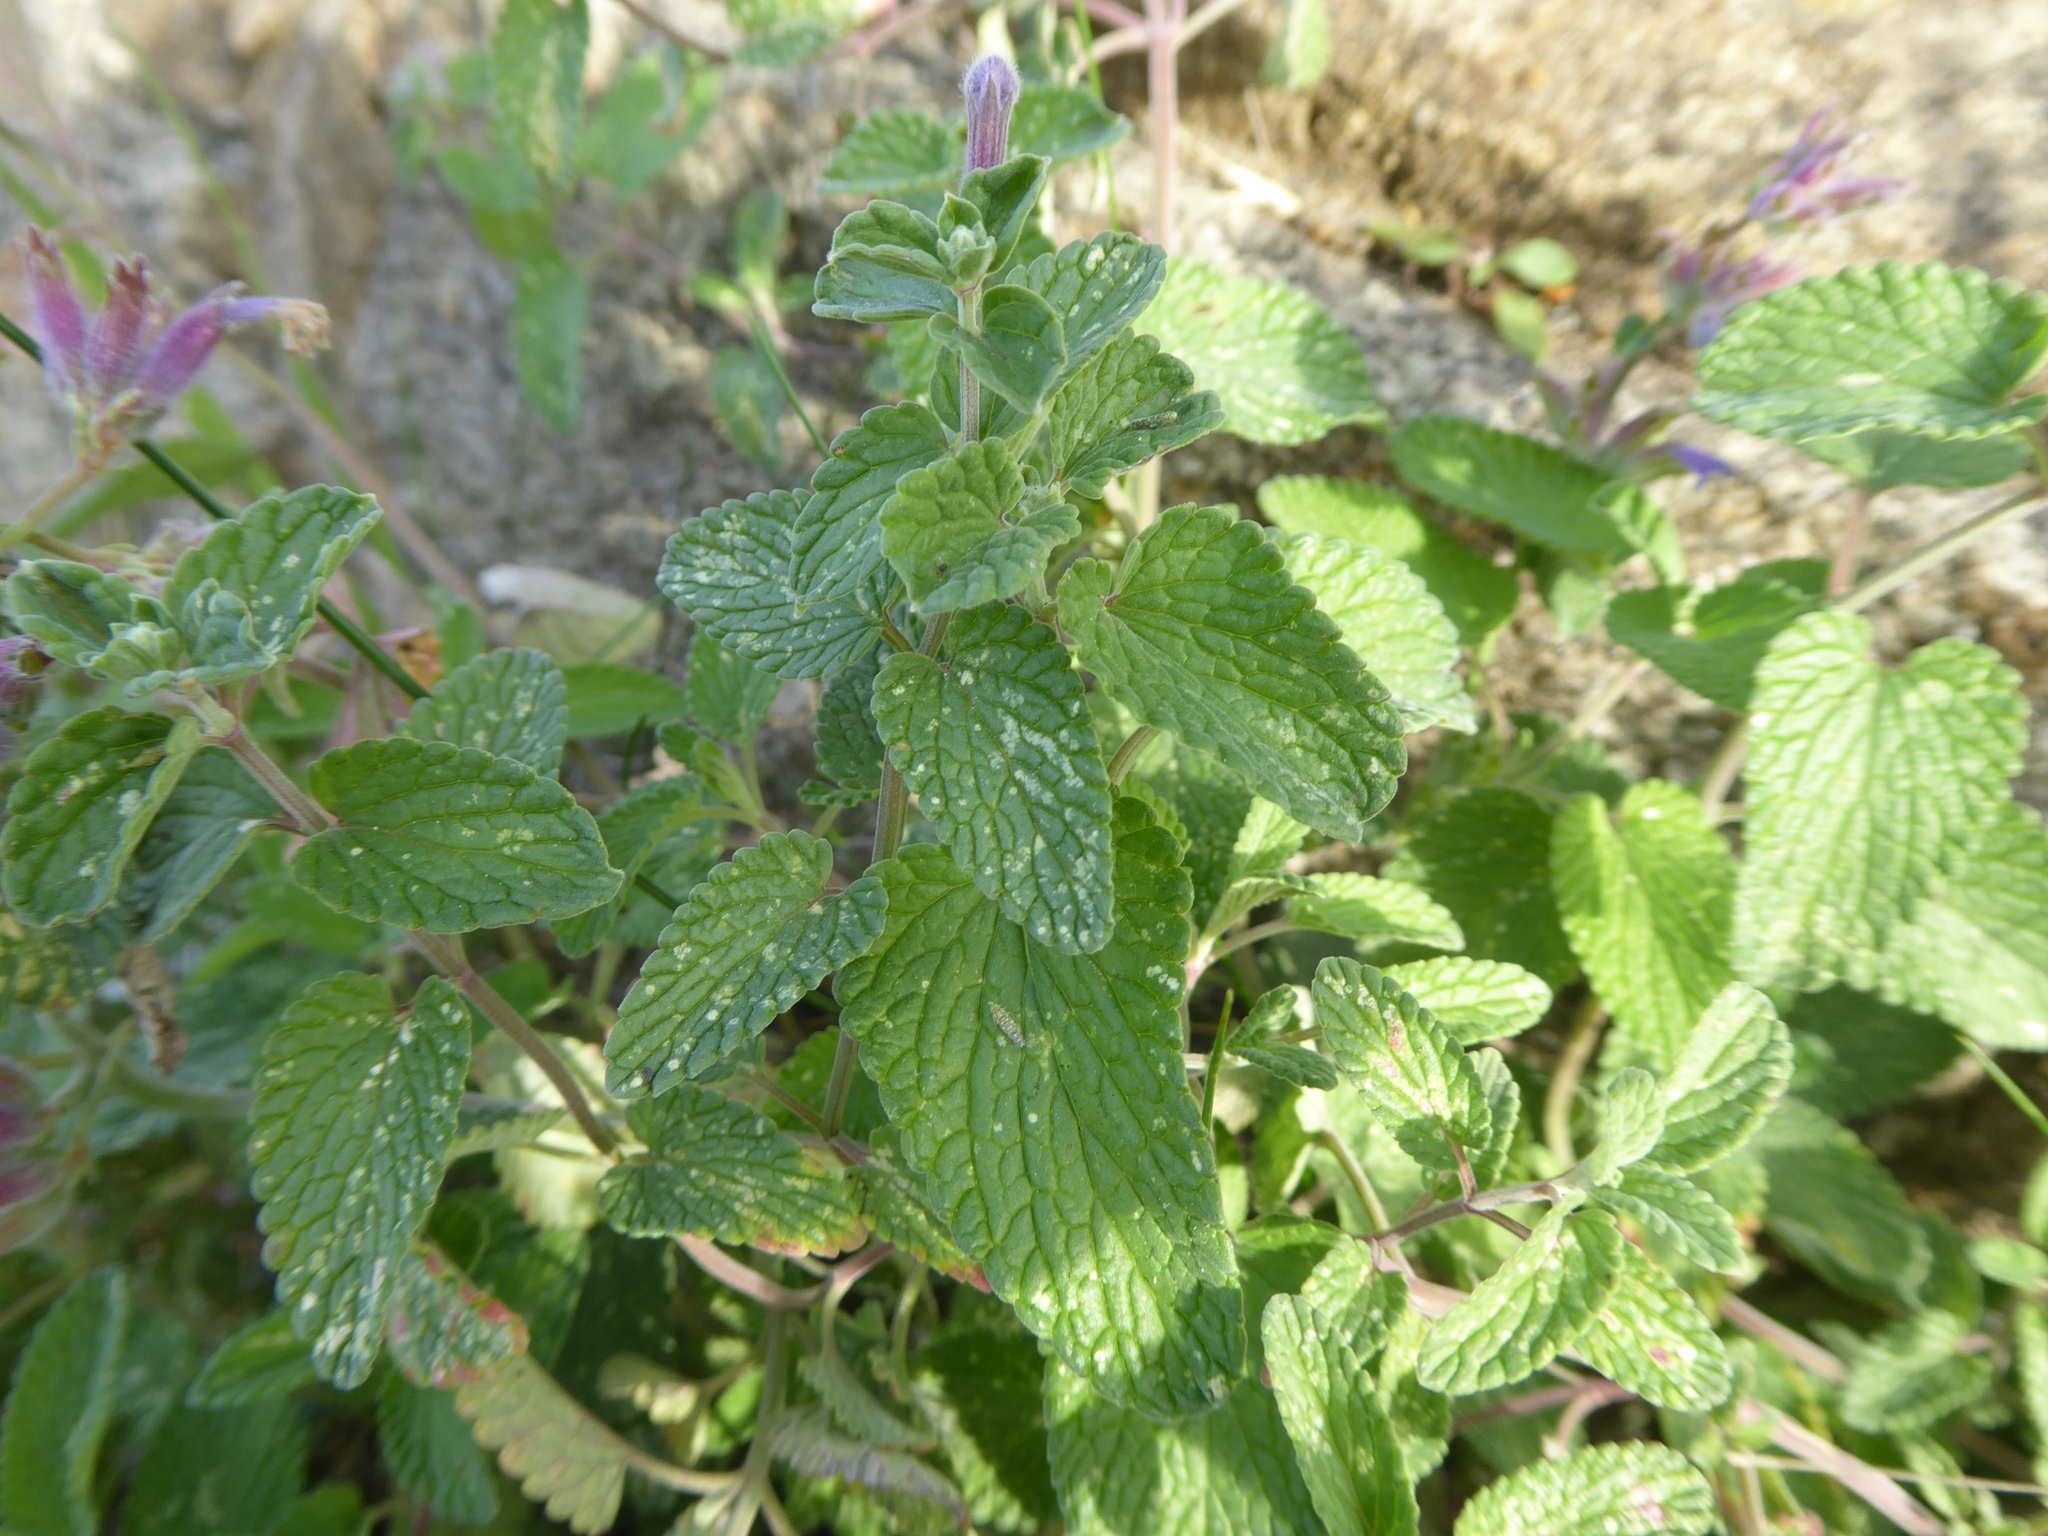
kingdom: Plantae
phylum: Tracheophyta
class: Magnoliopsida
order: Lamiales
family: Lamiaceae
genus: Nepeta
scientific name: Nepeta racemosa
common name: Raceme catnip
